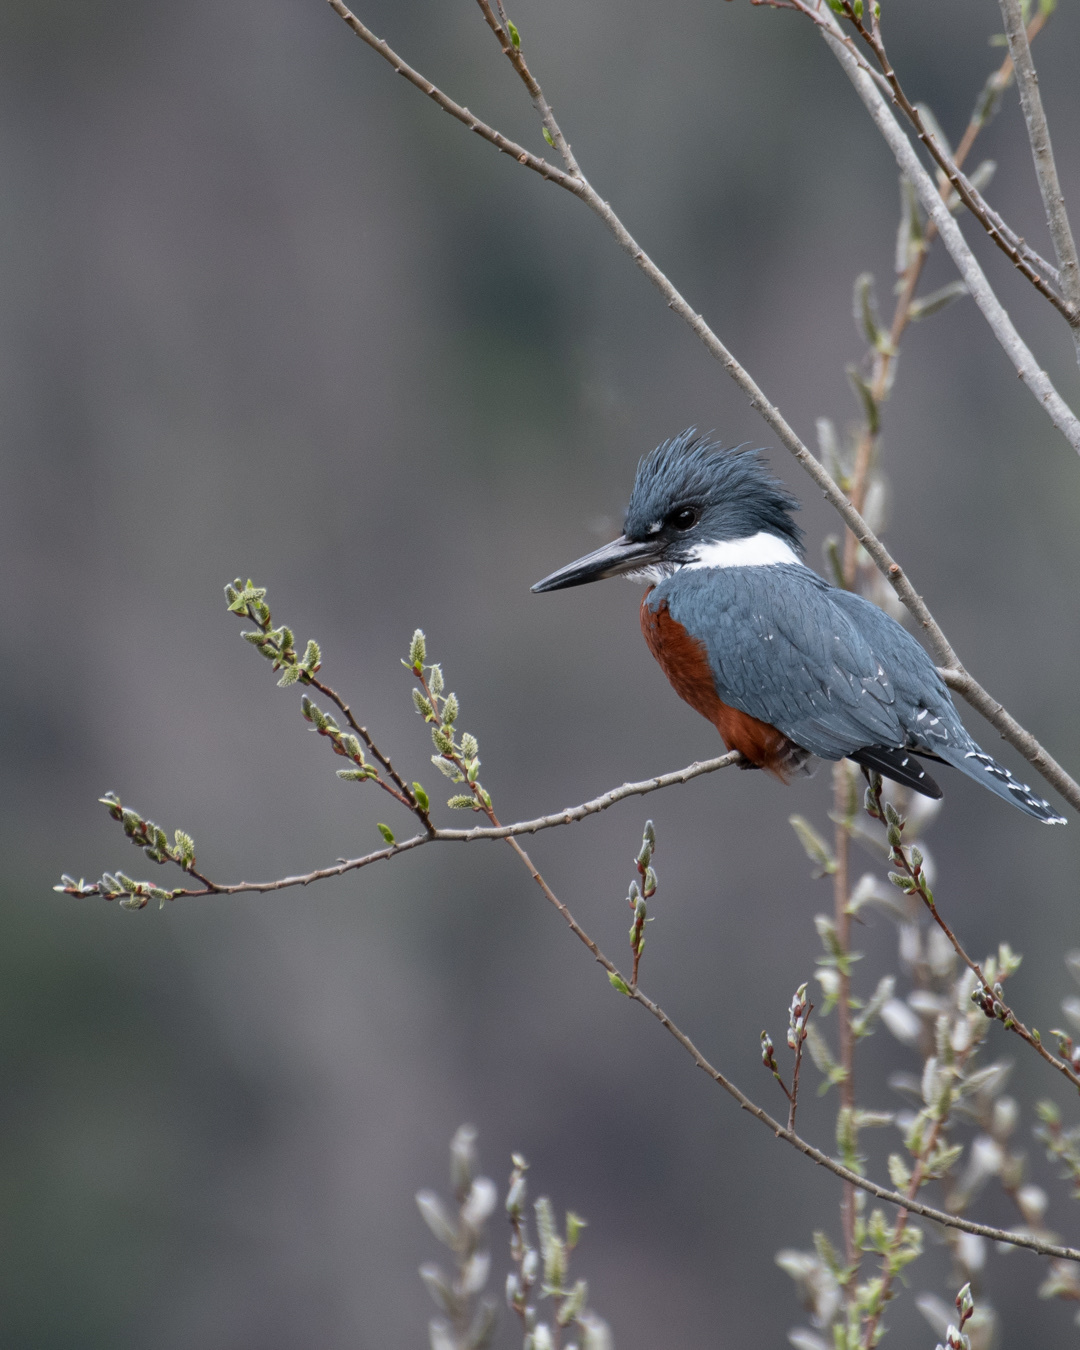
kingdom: Animalia
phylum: Chordata
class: Aves
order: Coraciiformes
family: Alcedinidae
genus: Megaceryle
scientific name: Megaceryle torquata
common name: Ringed kingfisher
